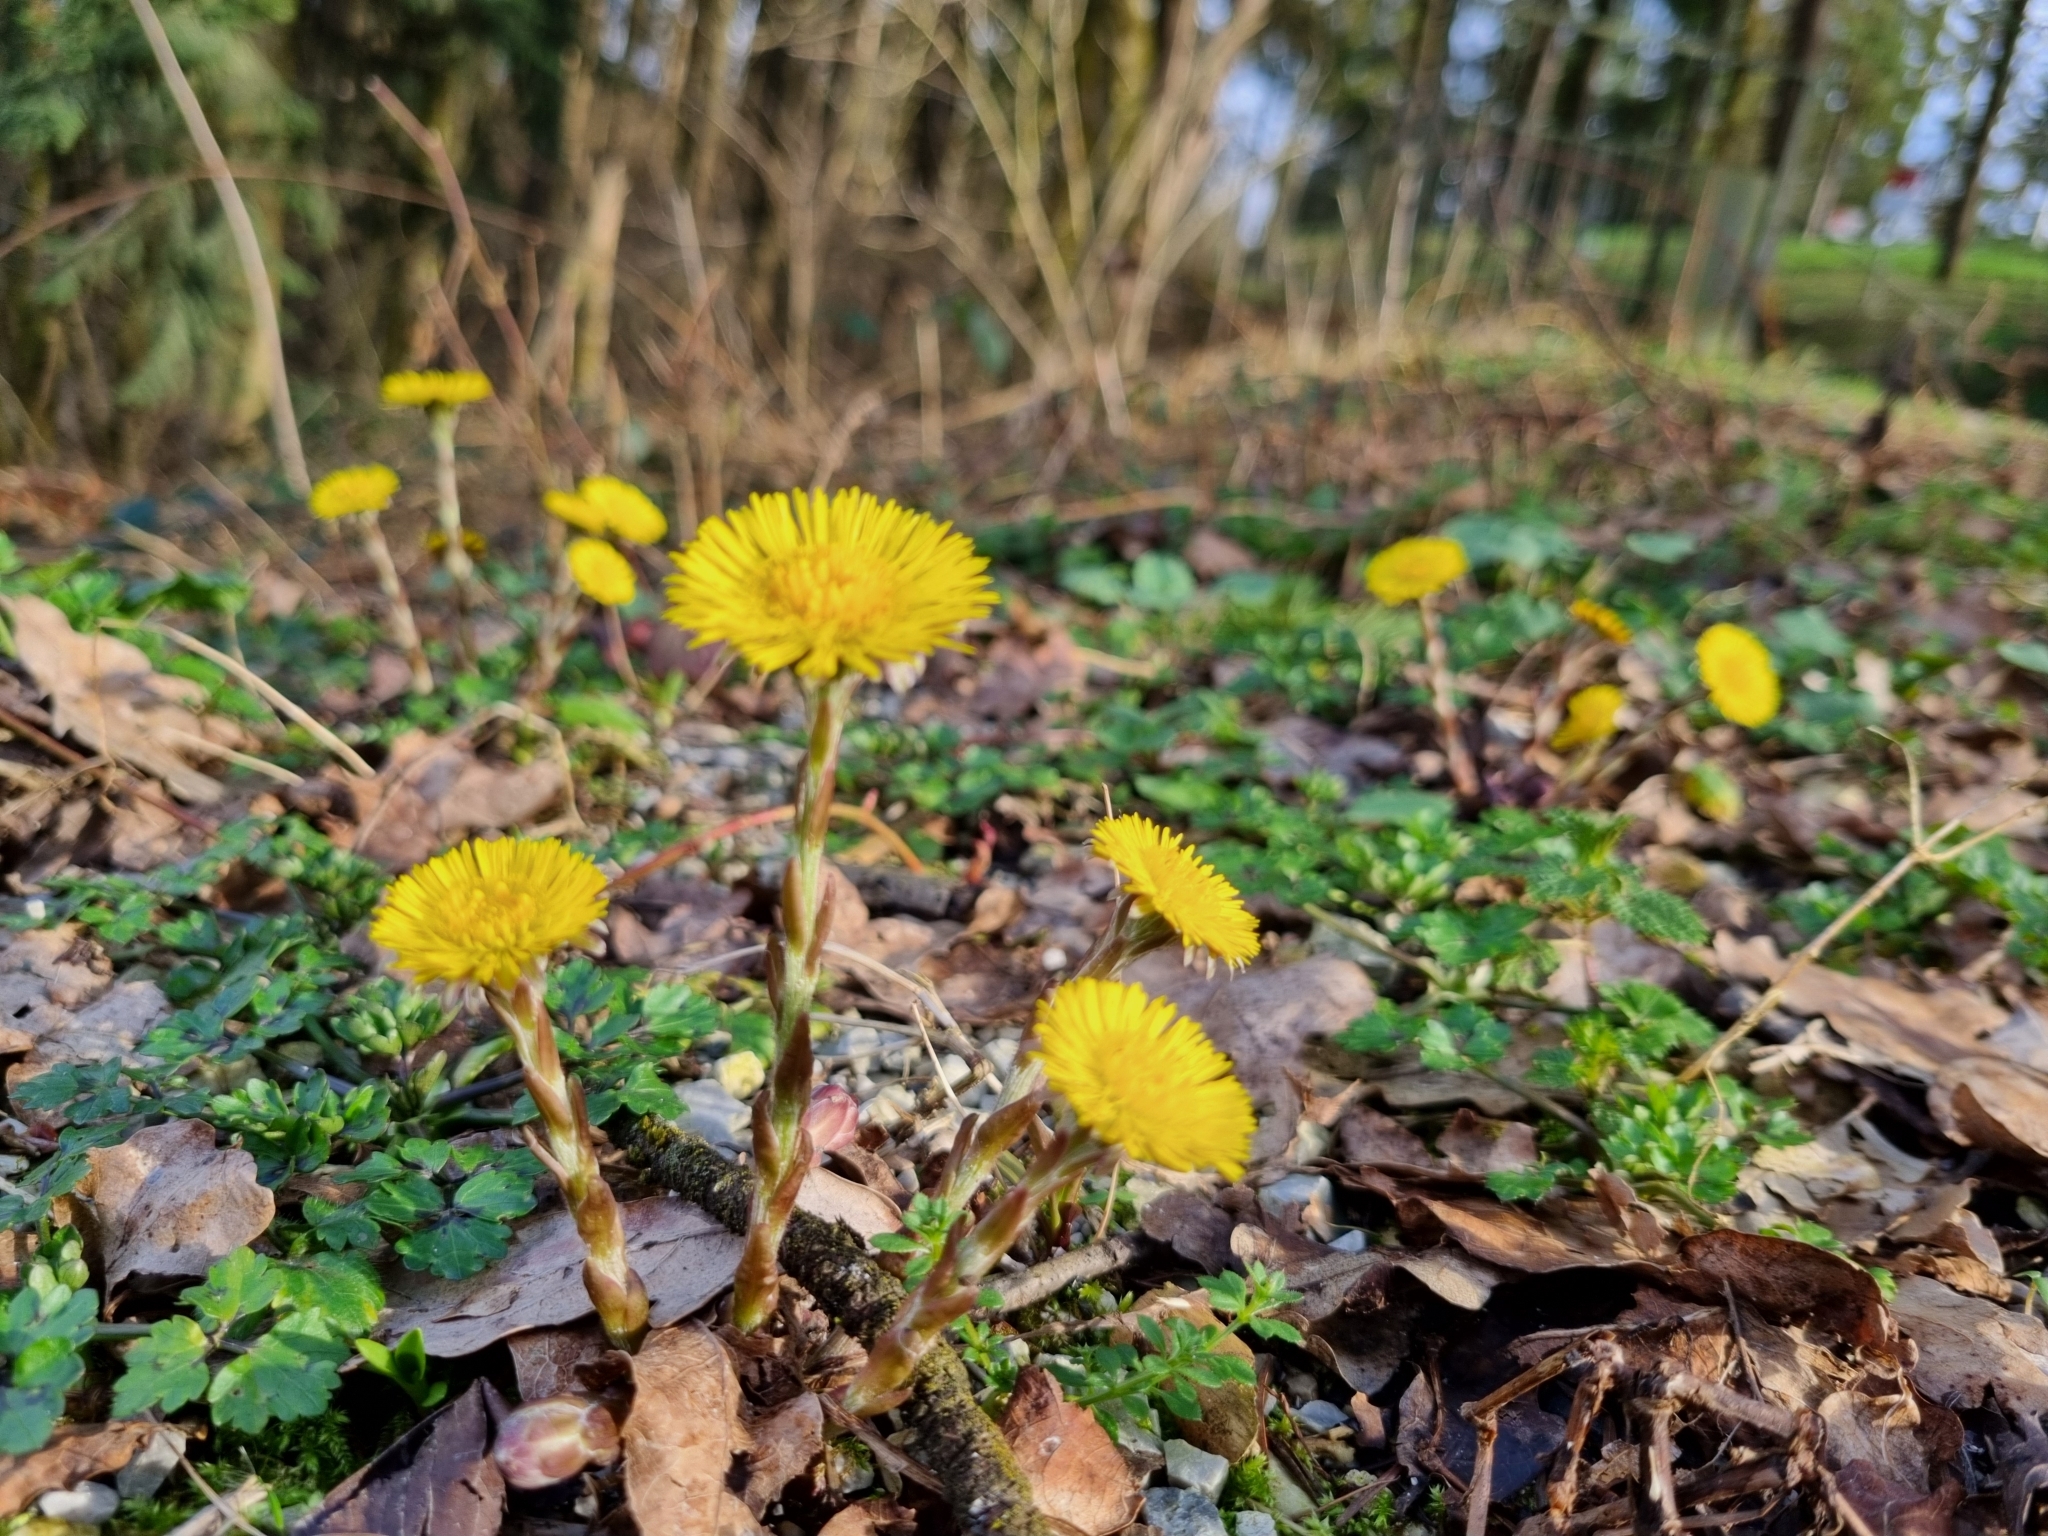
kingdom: Plantae
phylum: Tracheophyta
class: Magnoliopsida
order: Asterales
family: Asteraceae
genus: Tussilago
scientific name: Tussilago farfara
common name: Coltsfoot
